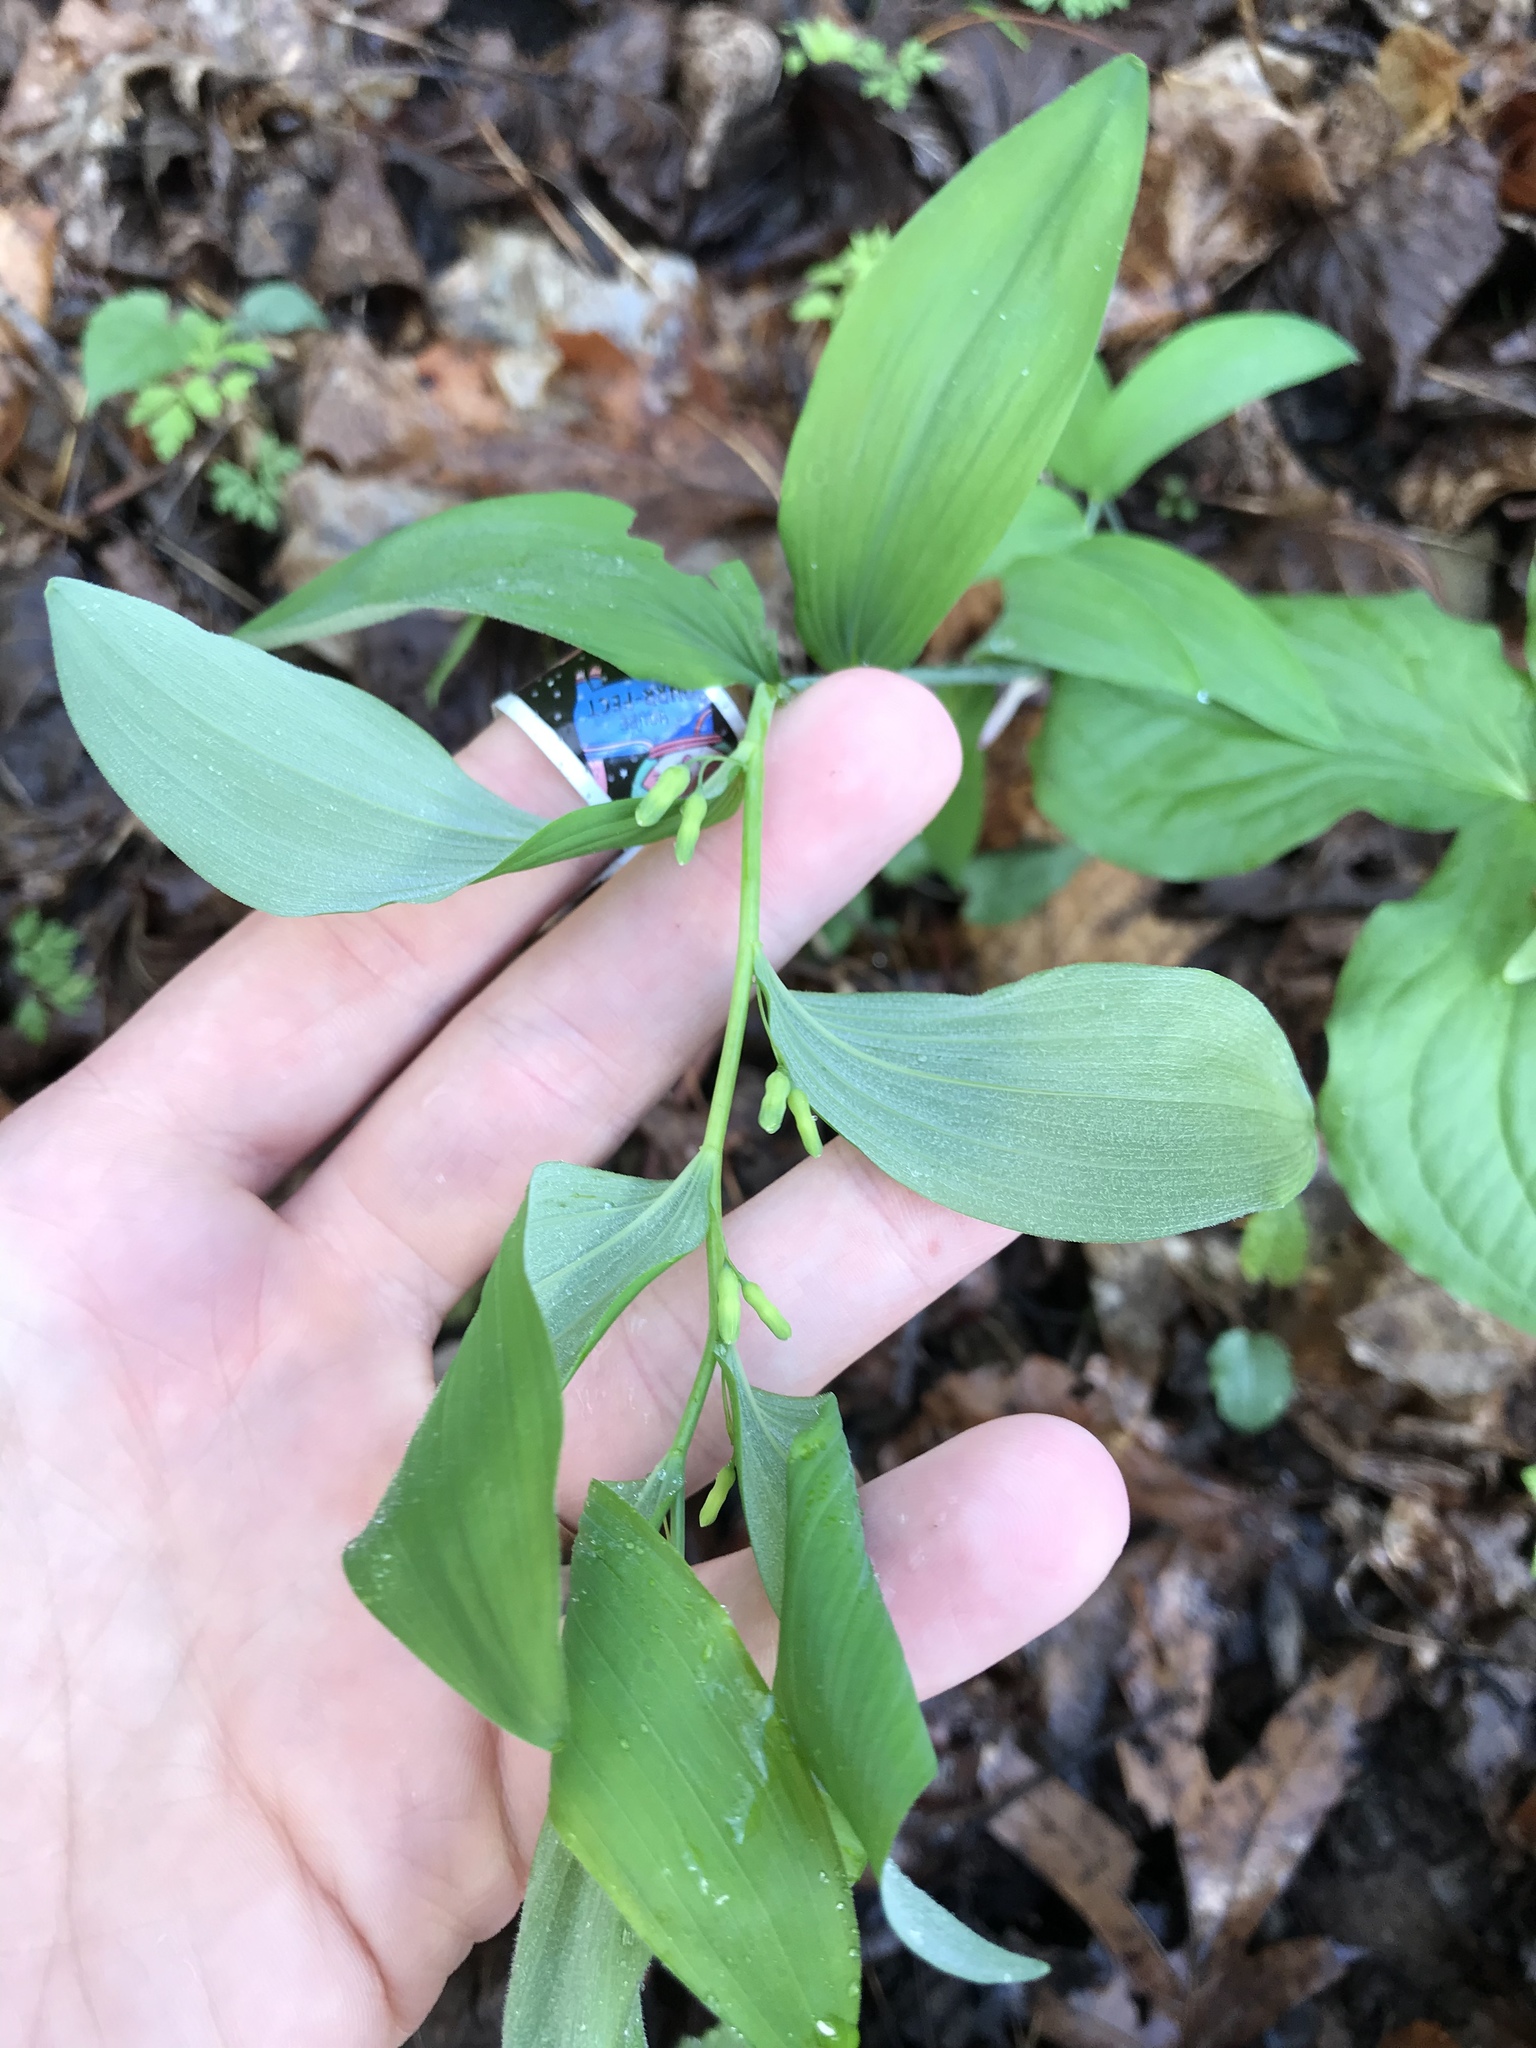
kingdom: Plantae
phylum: Tracheophyta
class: Liliopsida
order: Asparagales
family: Asparagaceae
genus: Polygonatum
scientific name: Polygonatum pubescens
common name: Downy solomon's seal
